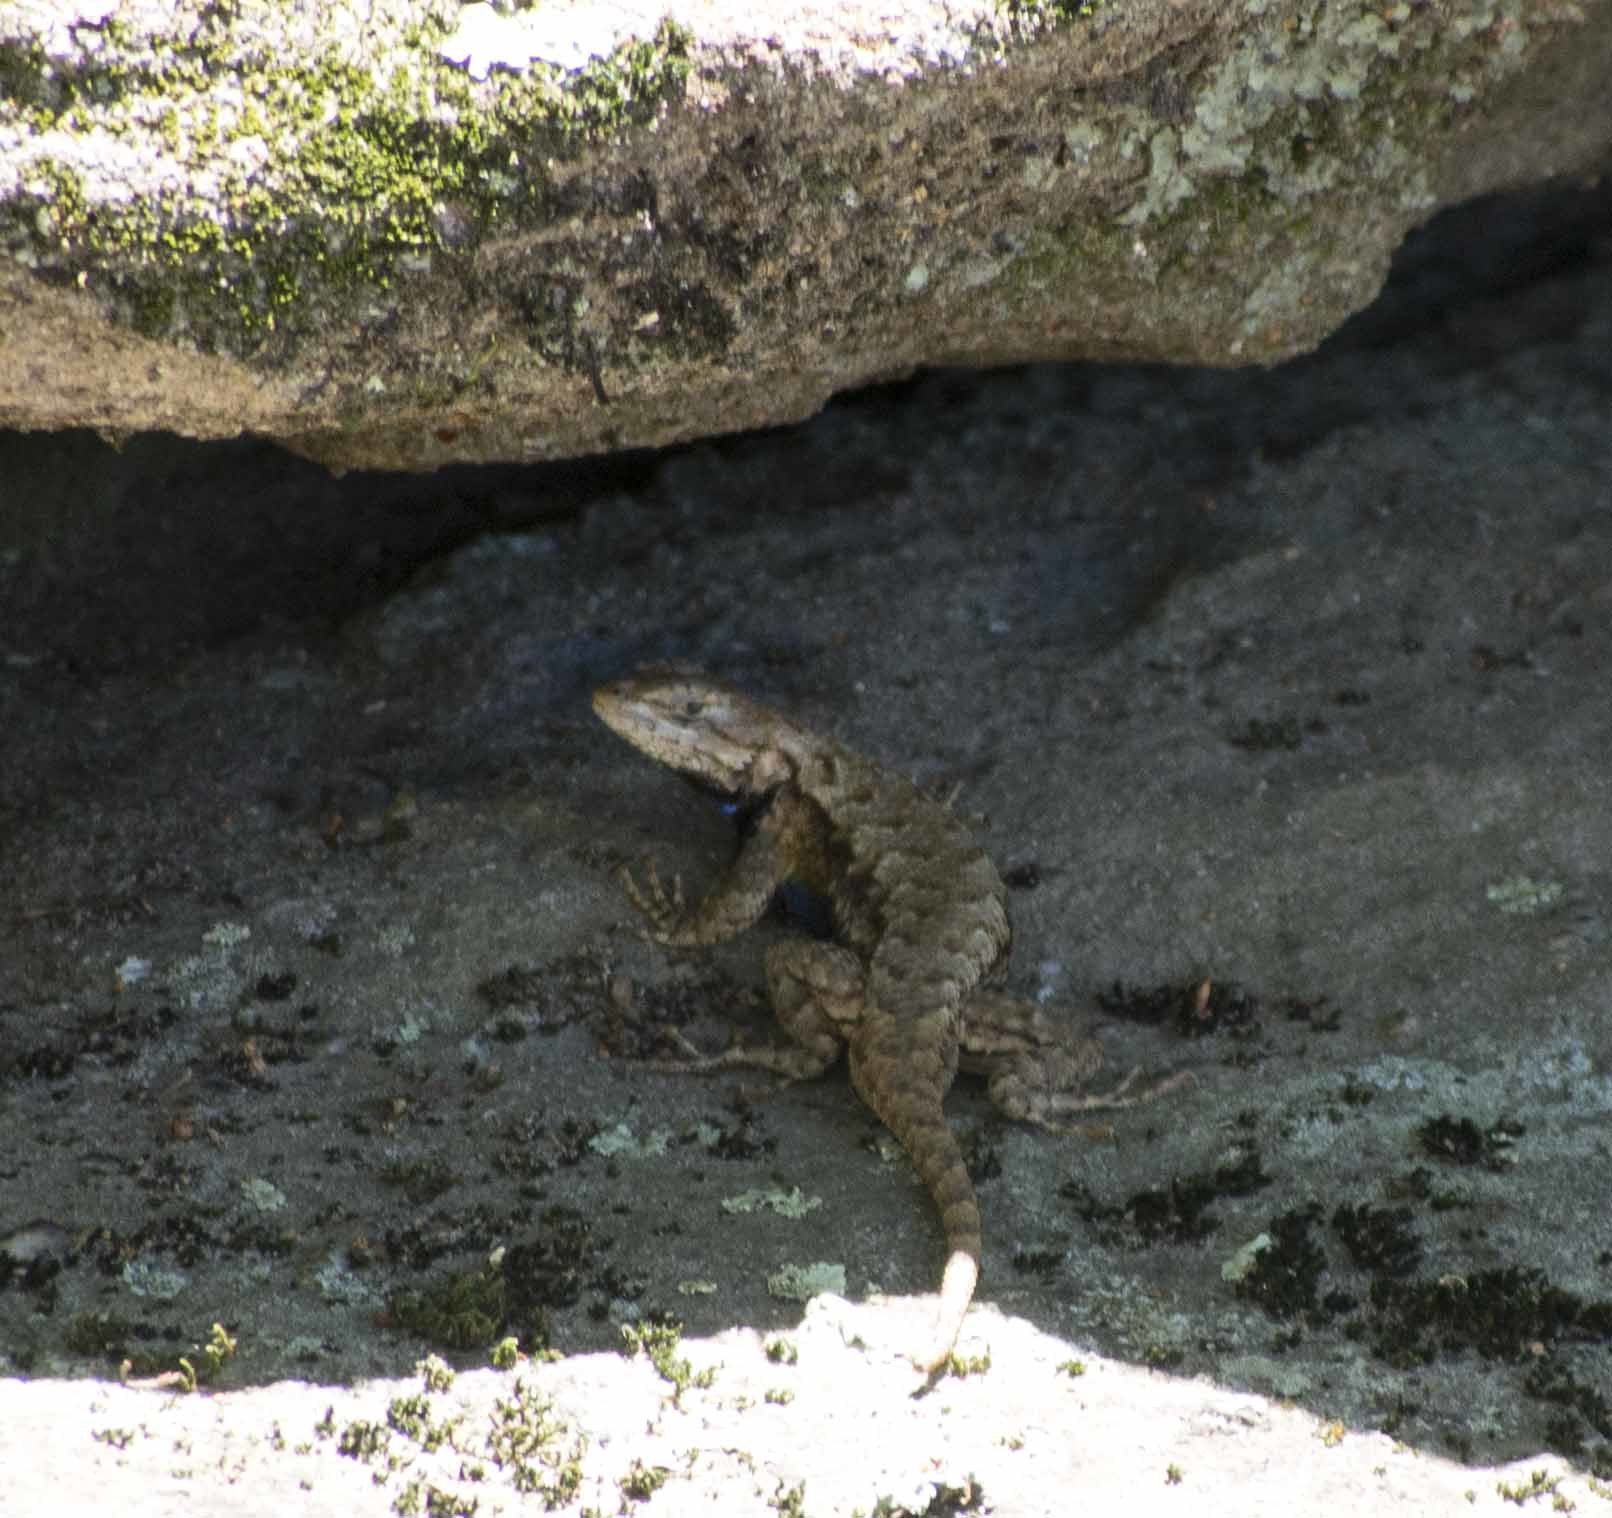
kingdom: Animalia
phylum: Chordata
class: Squamata
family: Phrynosomatidae
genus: Sceloporus
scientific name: Sceloporus undulatus
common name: Eastern fence lizard
